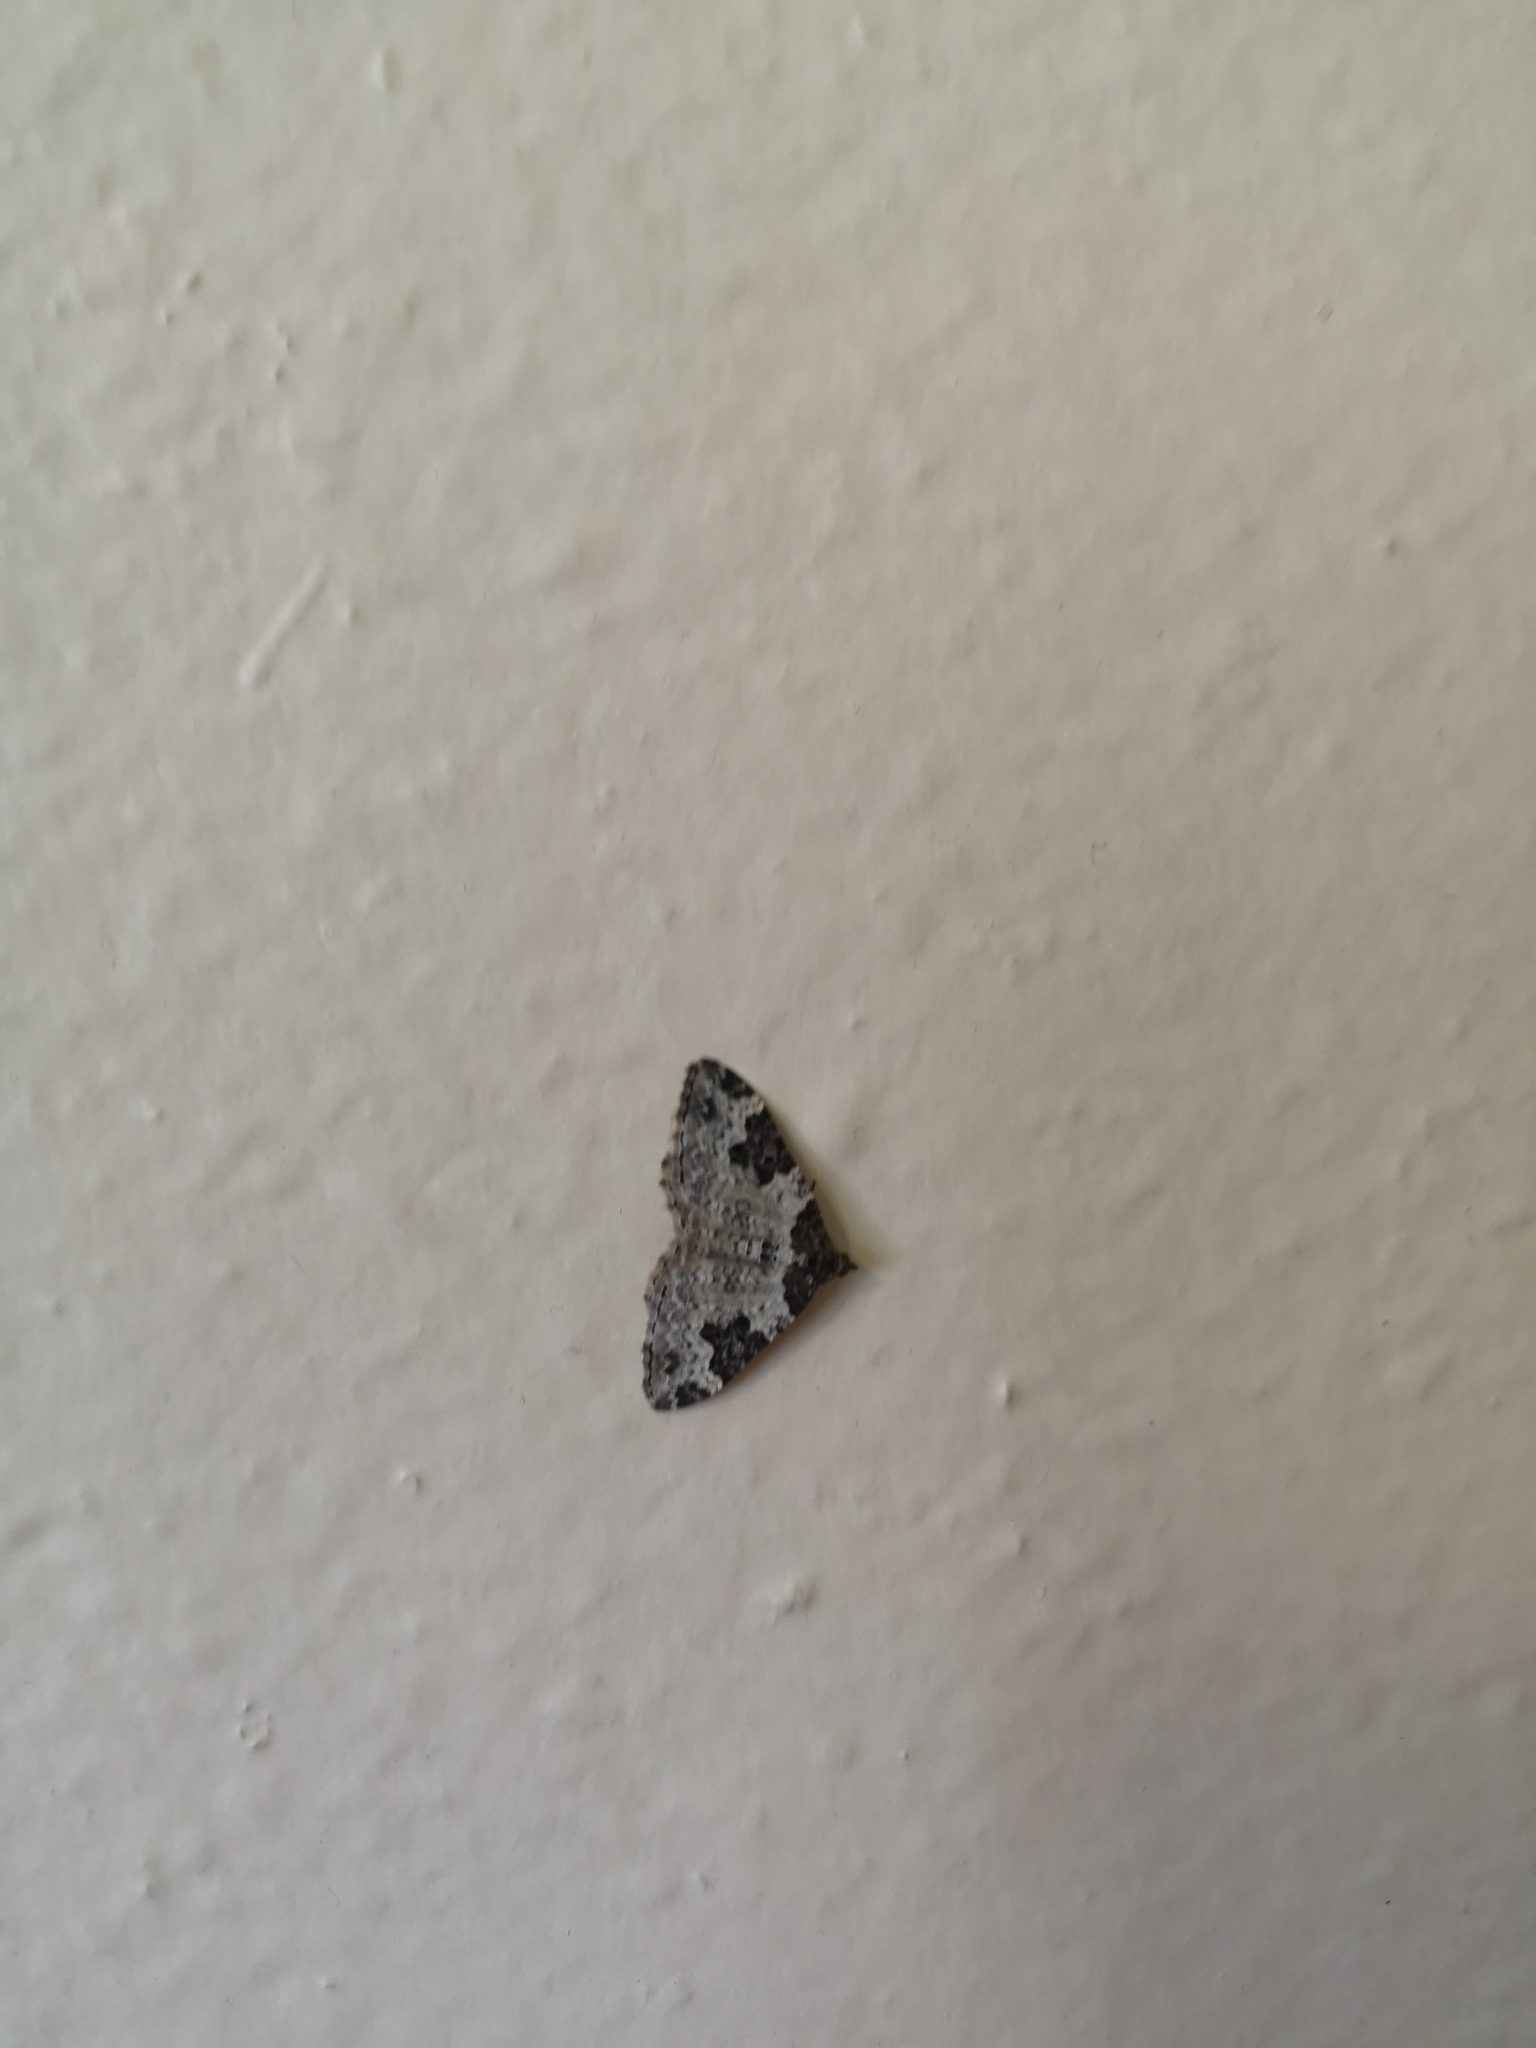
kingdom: Animalia
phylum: Arthropoda
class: Insecta
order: Lepidoptera
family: Geometridae
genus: Xanthorhoe
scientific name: Xanthorhoe fluctuata
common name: Garden carpet
